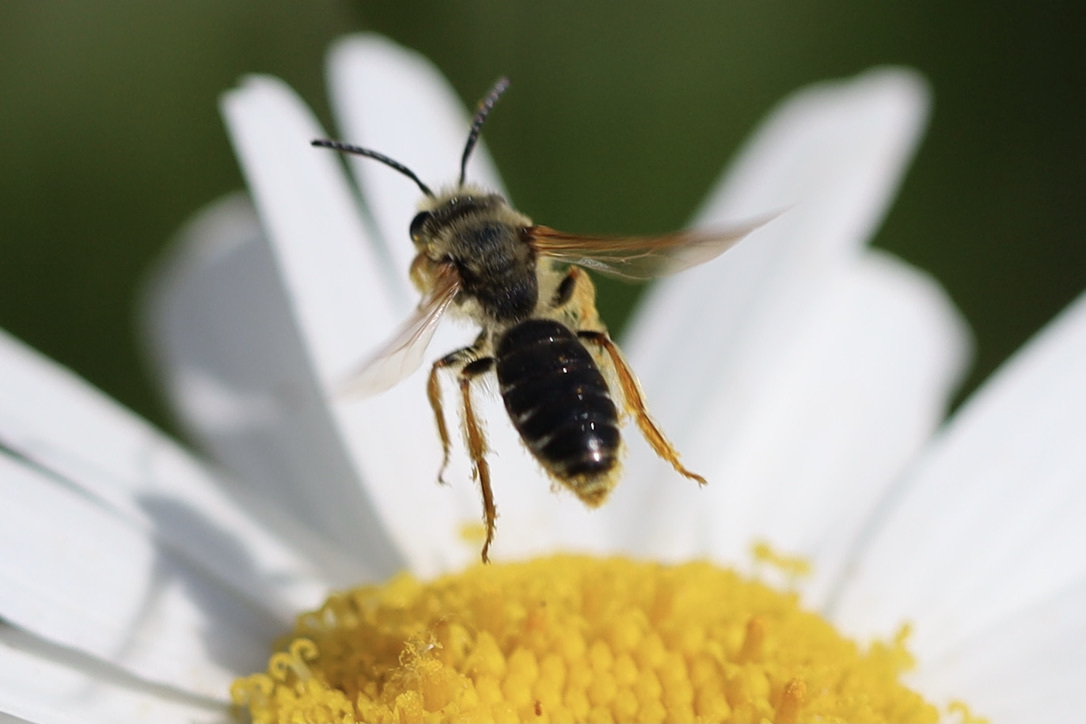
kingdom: Animalia
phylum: Arthropoda
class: Insecta
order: Hymenoptera
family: Andrenidae
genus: Andrena
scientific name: Andrena prunorum
